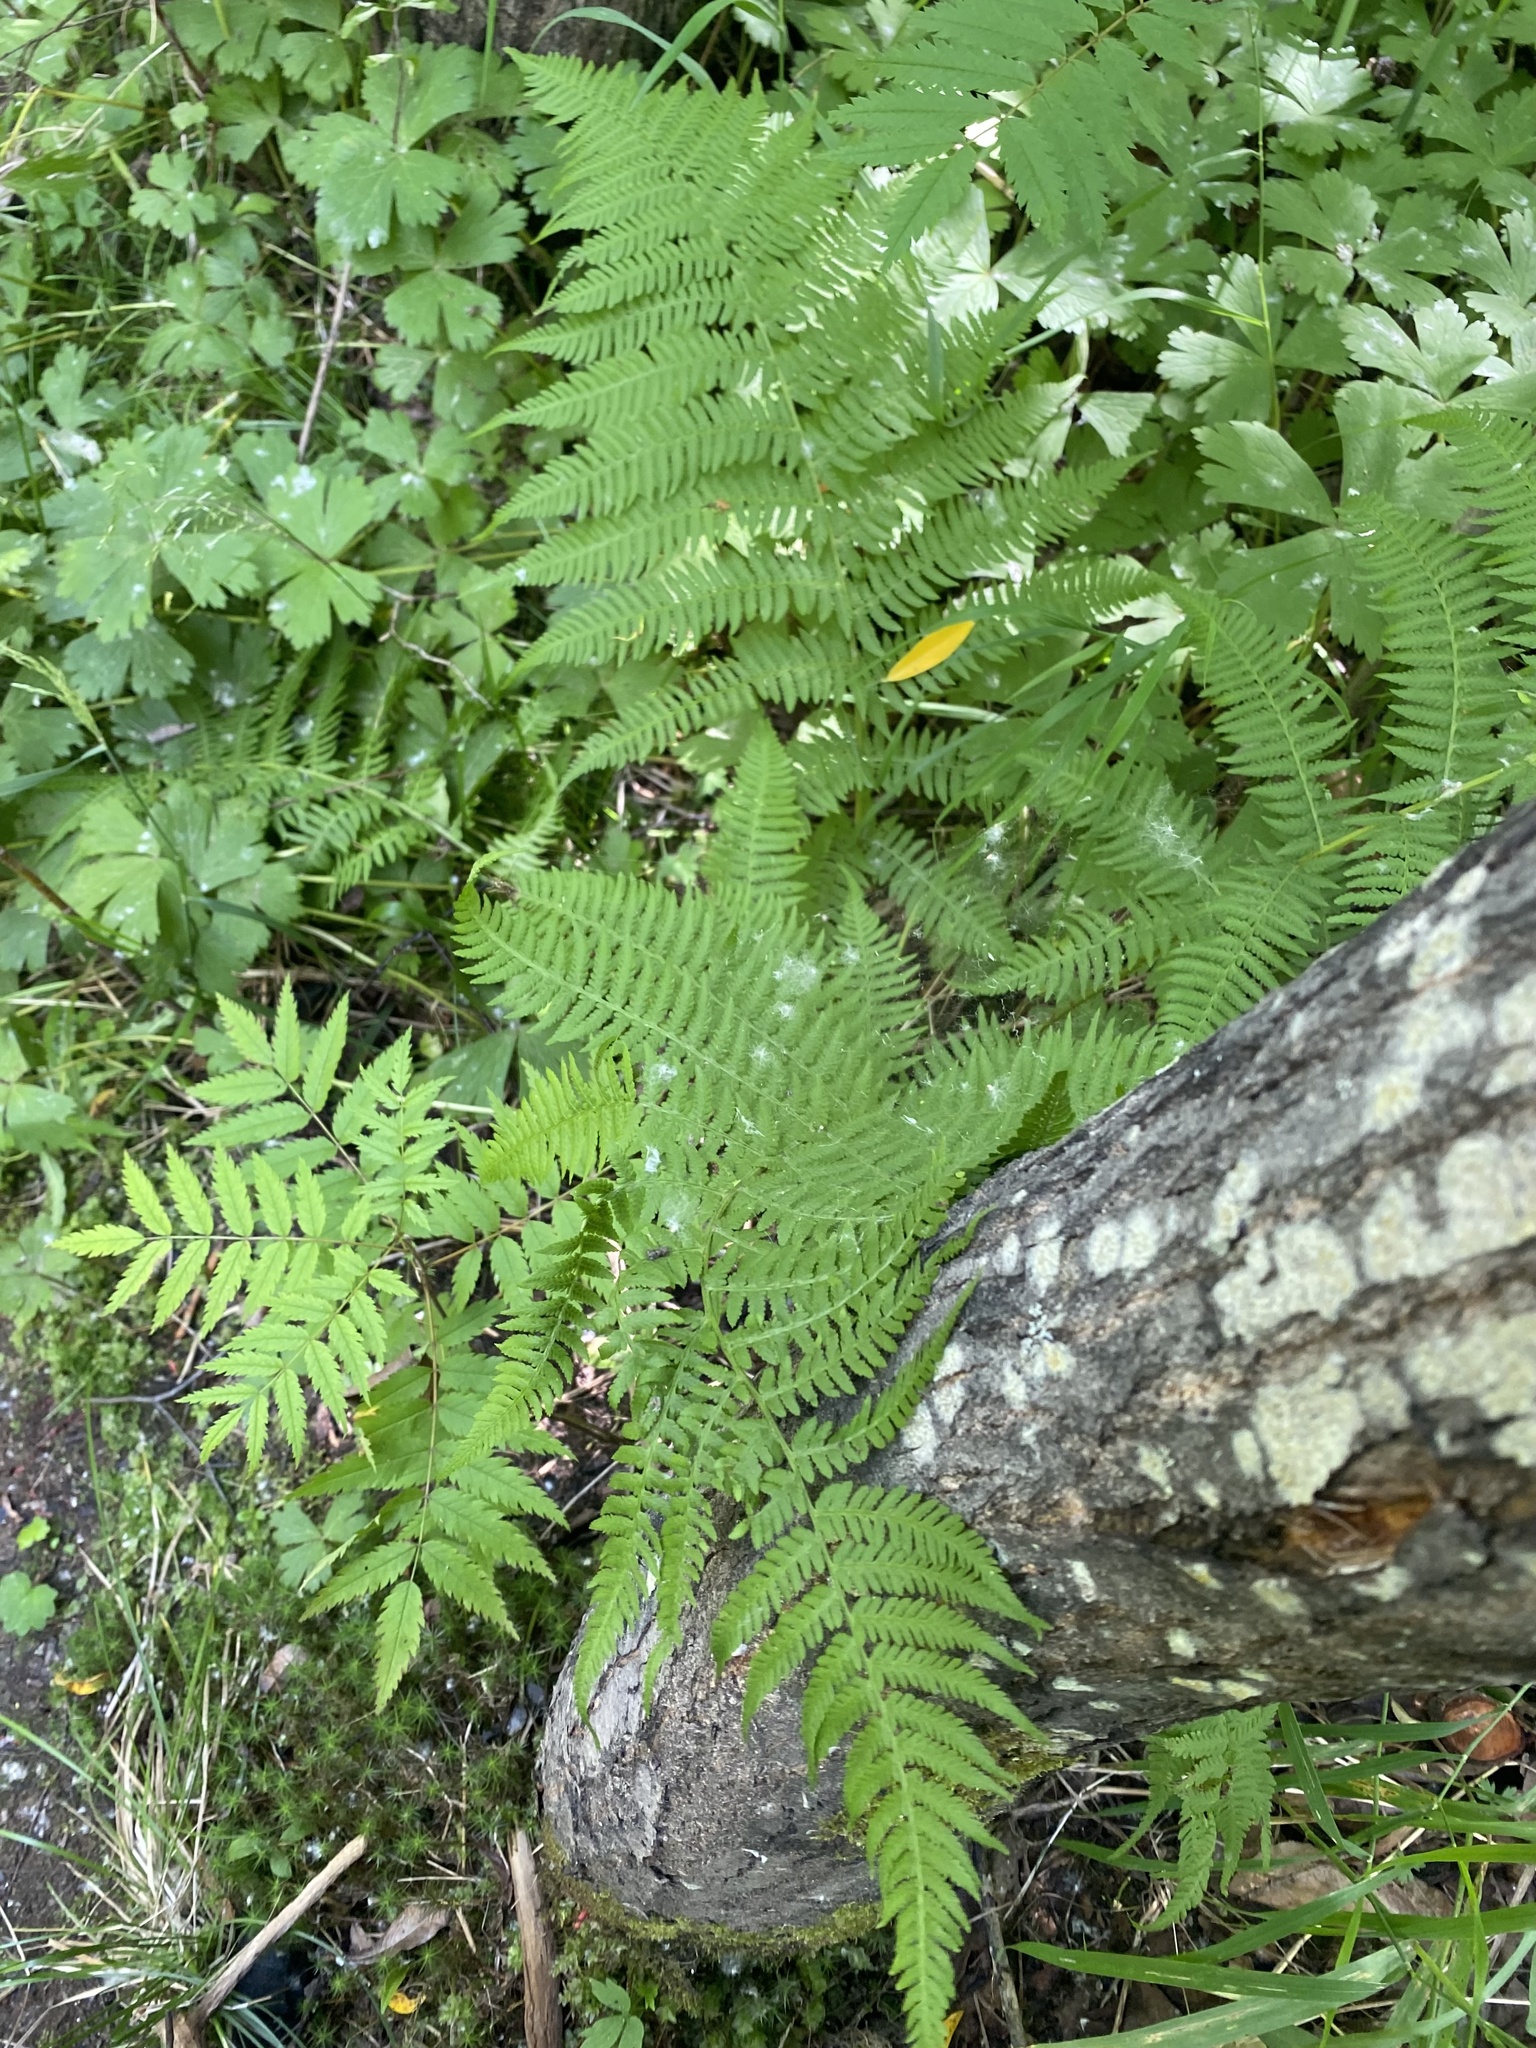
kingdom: Plantae
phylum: Tracheophyta
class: Polypodiopsida
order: Polypodiales
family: Athyriaceae
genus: Athyrium
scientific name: Athyrium filix-femina
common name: Lady fern
